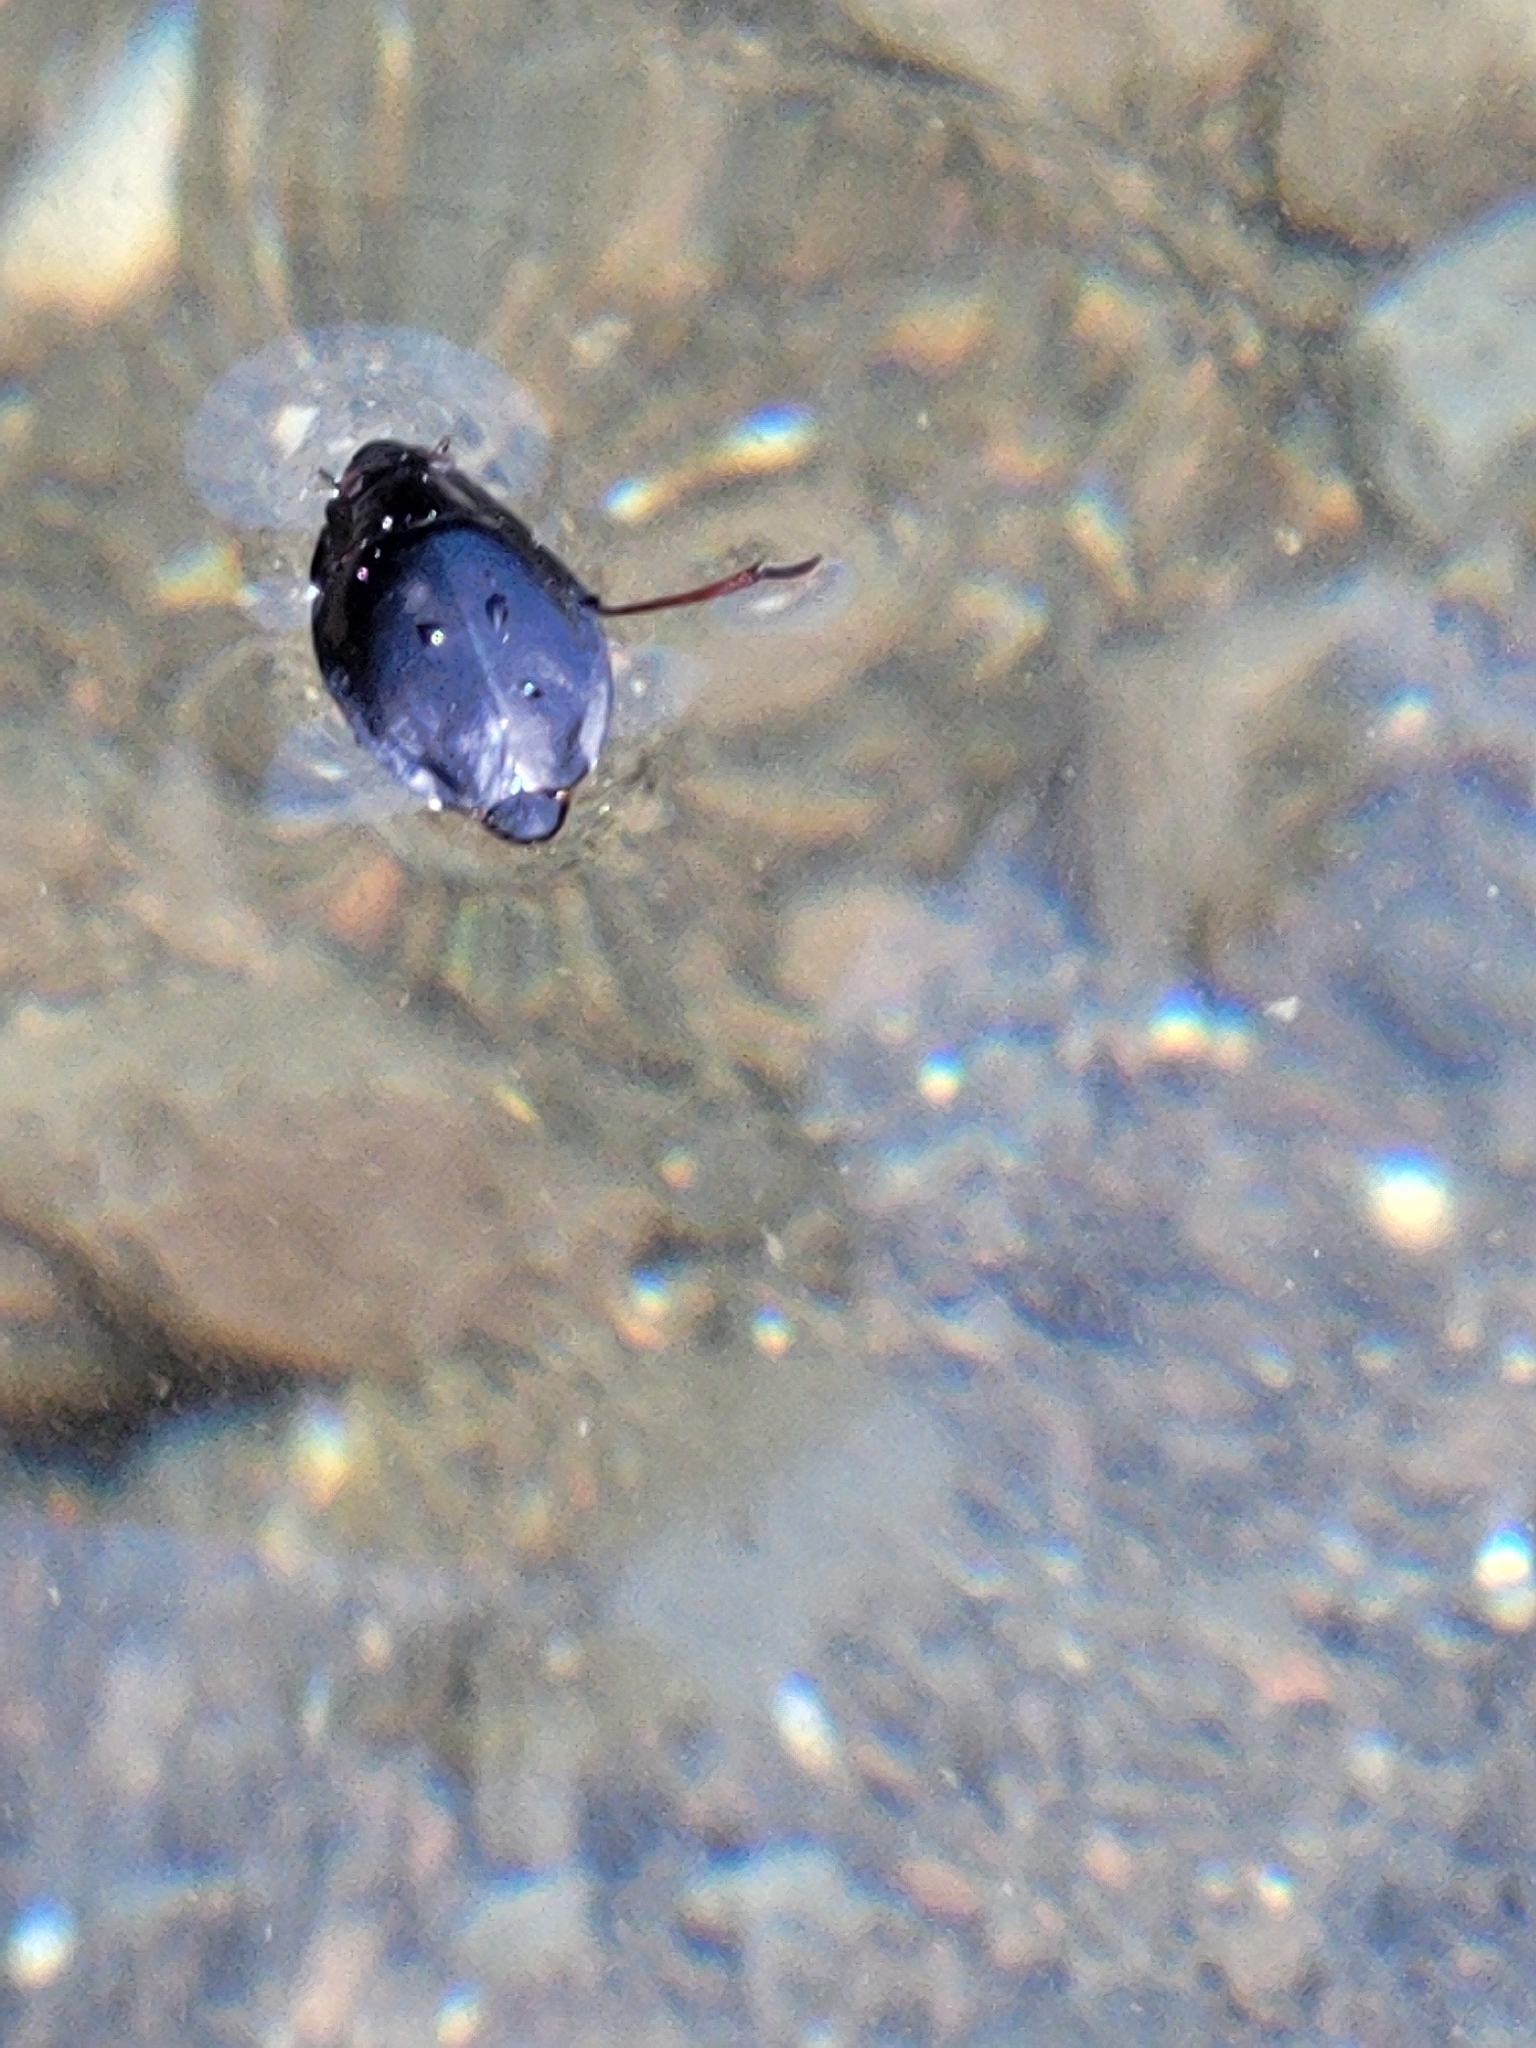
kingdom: Animalia
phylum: Arthropoda
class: Insecta
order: Coleoptera
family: Gyrinidae
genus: Dineutus
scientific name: Dineutus
